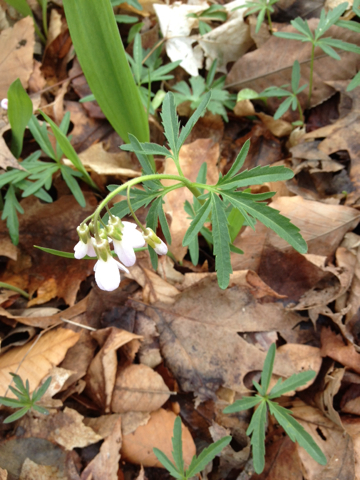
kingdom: Plantae
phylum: Tracheophyta
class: Magnoliopsida
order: Brassicales
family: Brassicaceae
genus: Cardamine
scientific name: Cardamine concatenata
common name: Cut-leaf toothcup
